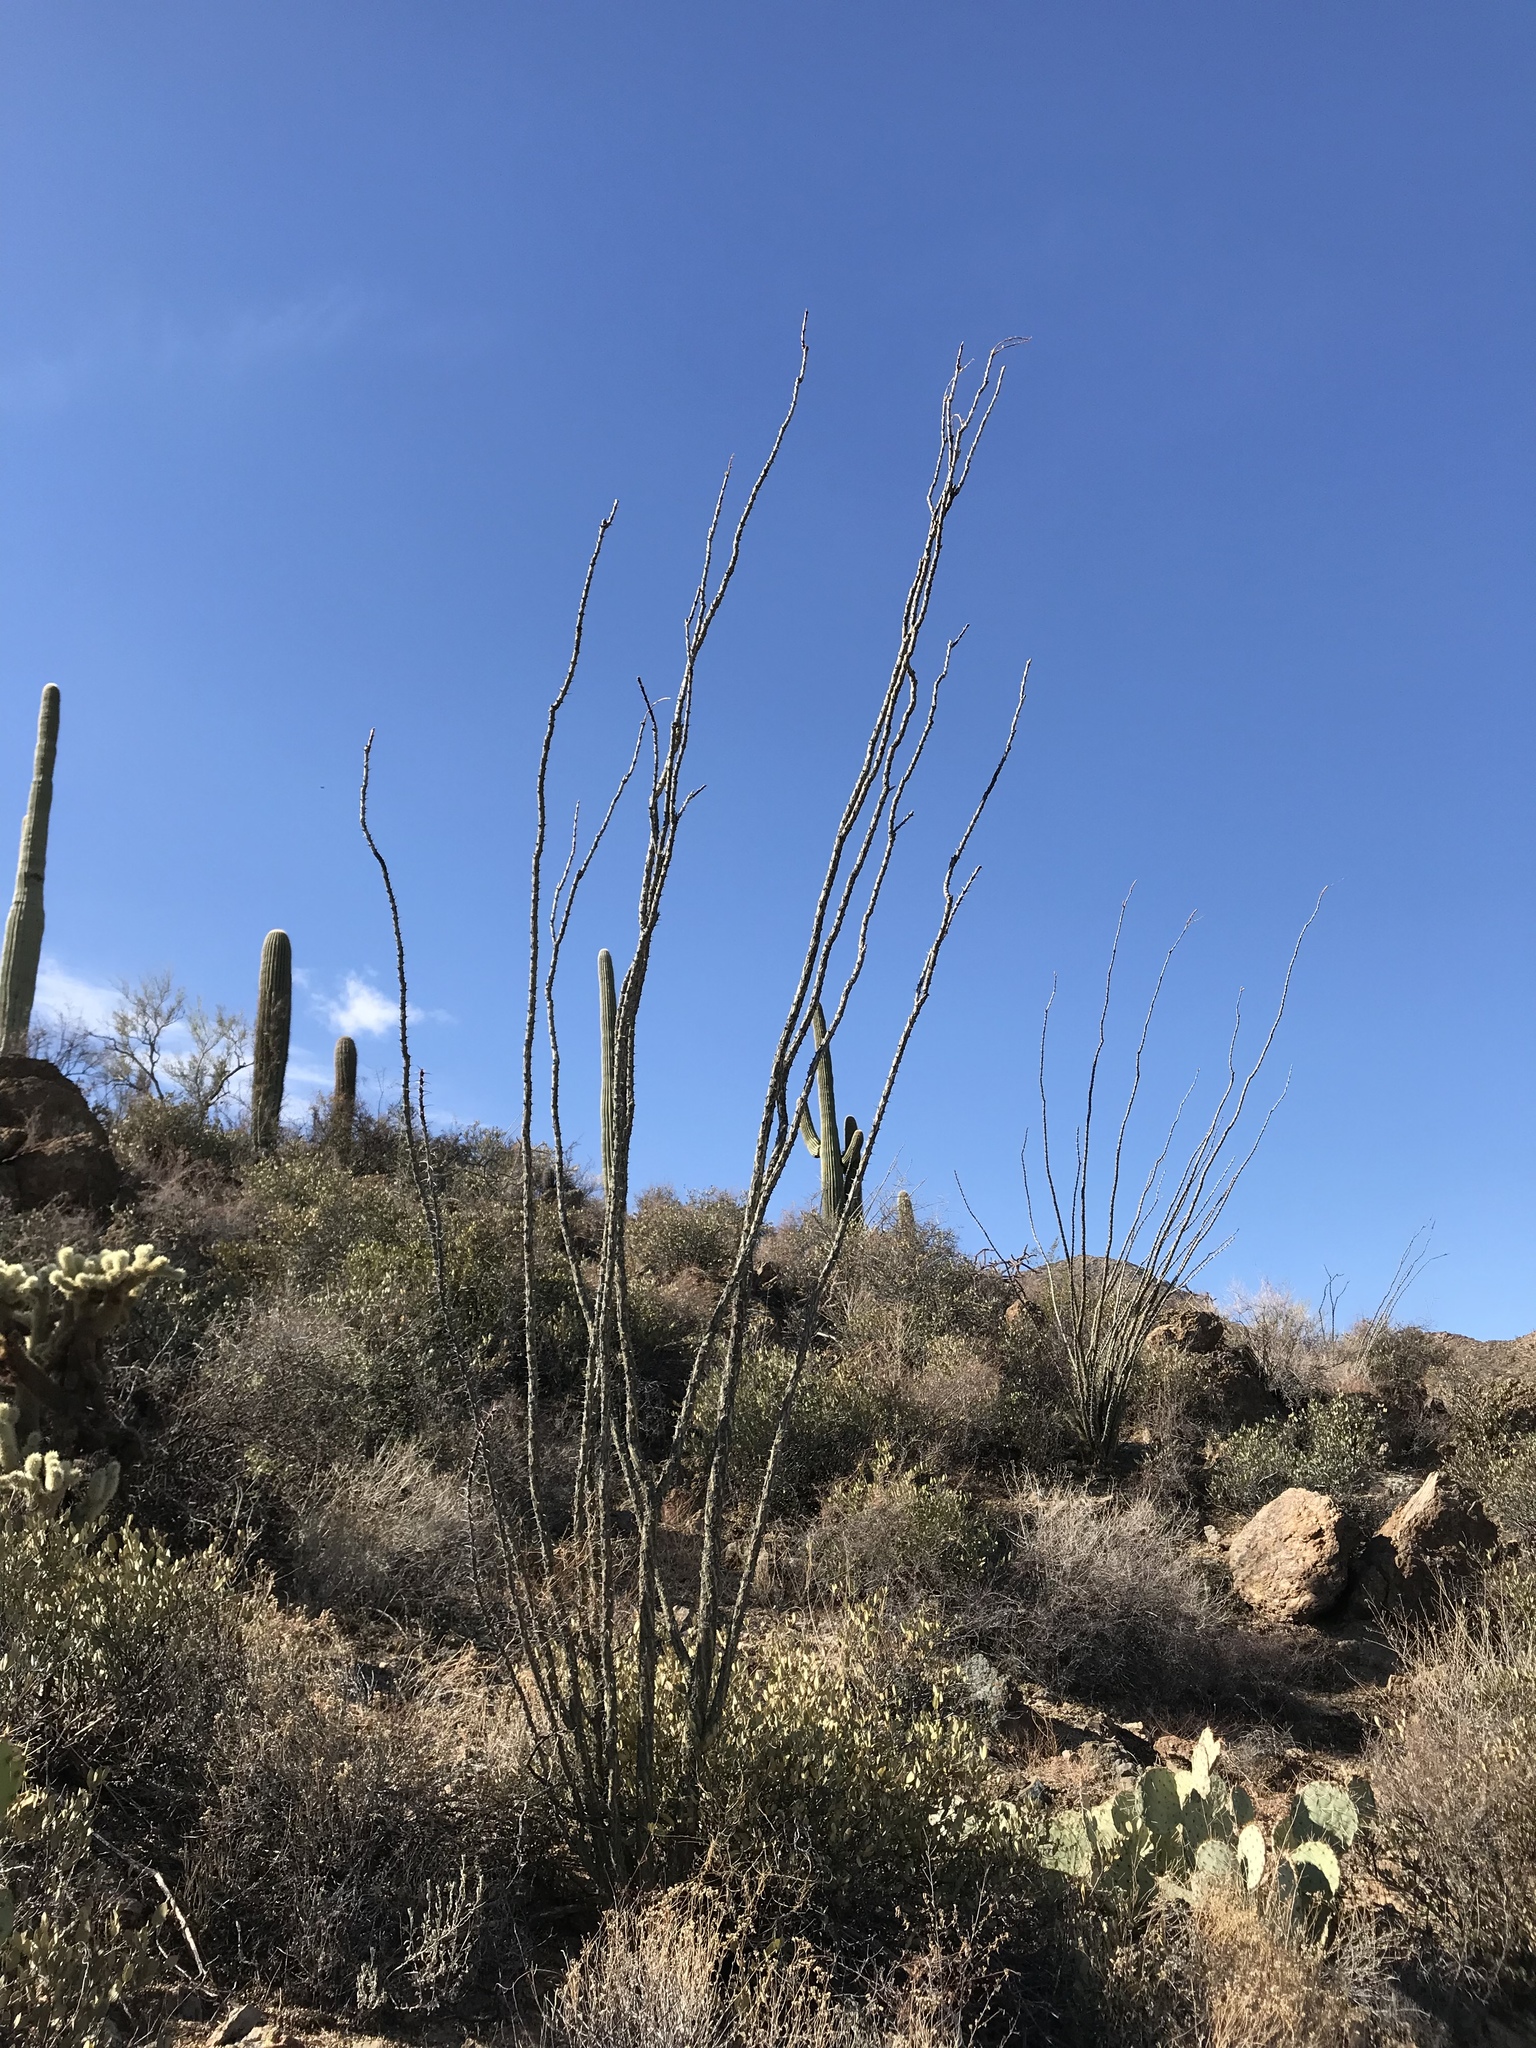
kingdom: Plantae
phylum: Tracheophyta
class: Magnoliopsida
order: Ericales
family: Fouquieriaceae
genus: Fouquieria
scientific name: Fouquieria splendens
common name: Vine-cactus
